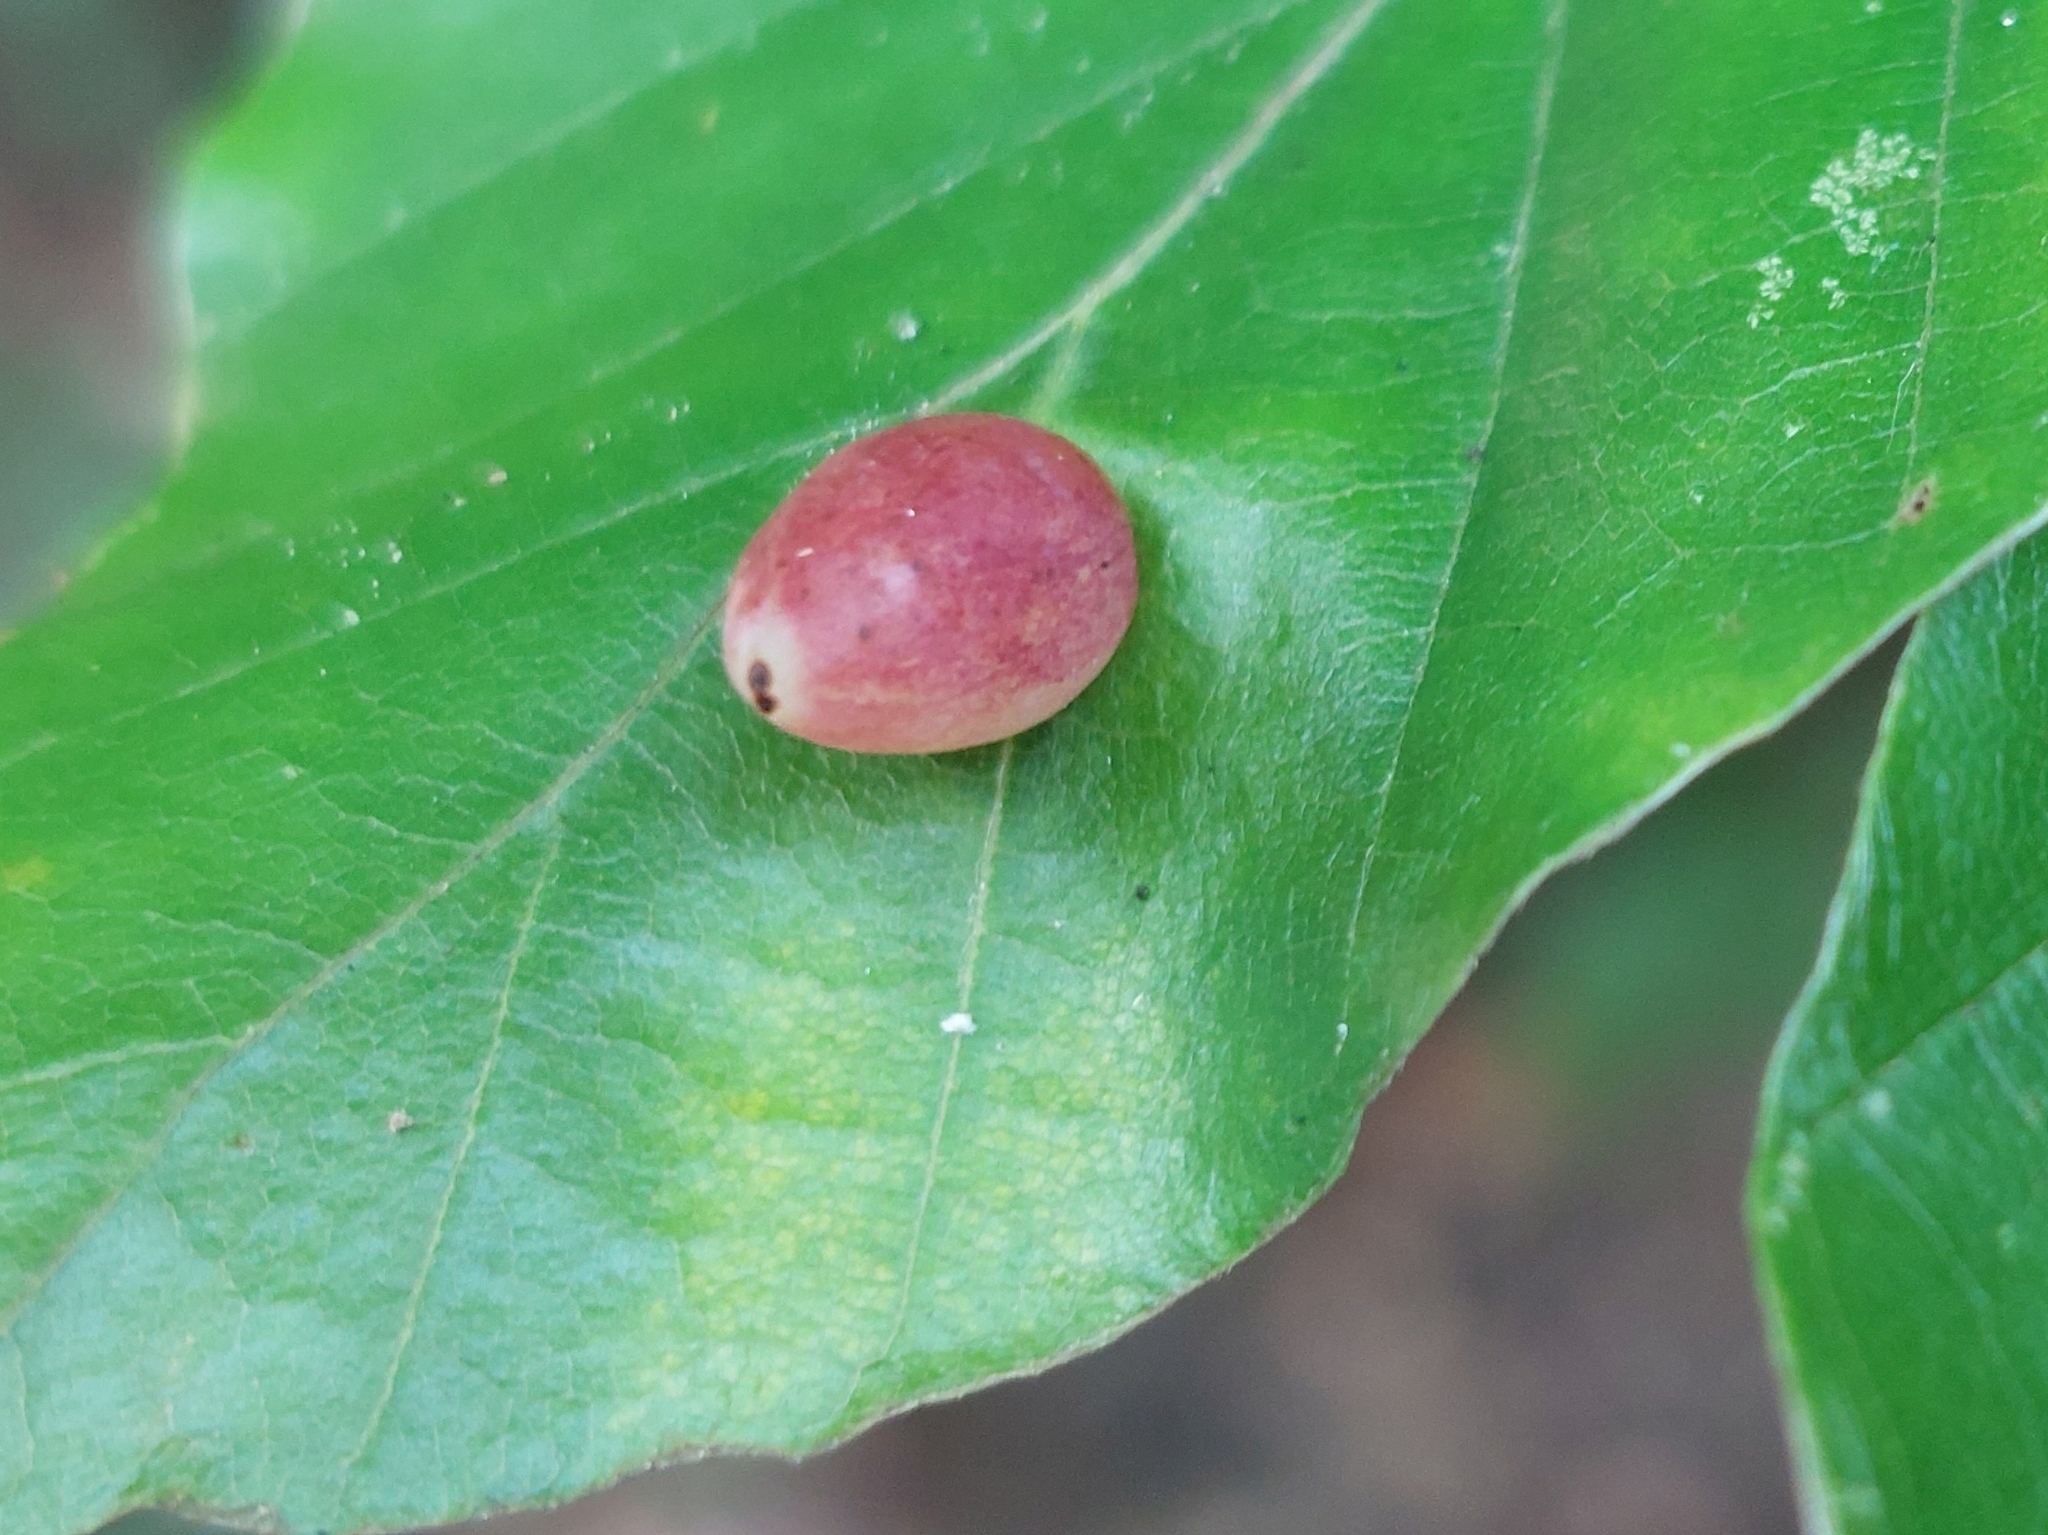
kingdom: Animalia
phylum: Arthropoda
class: Insecta
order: Diptera
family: Cecidomyiidae
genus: Mikiola
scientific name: Mikiola fagi
